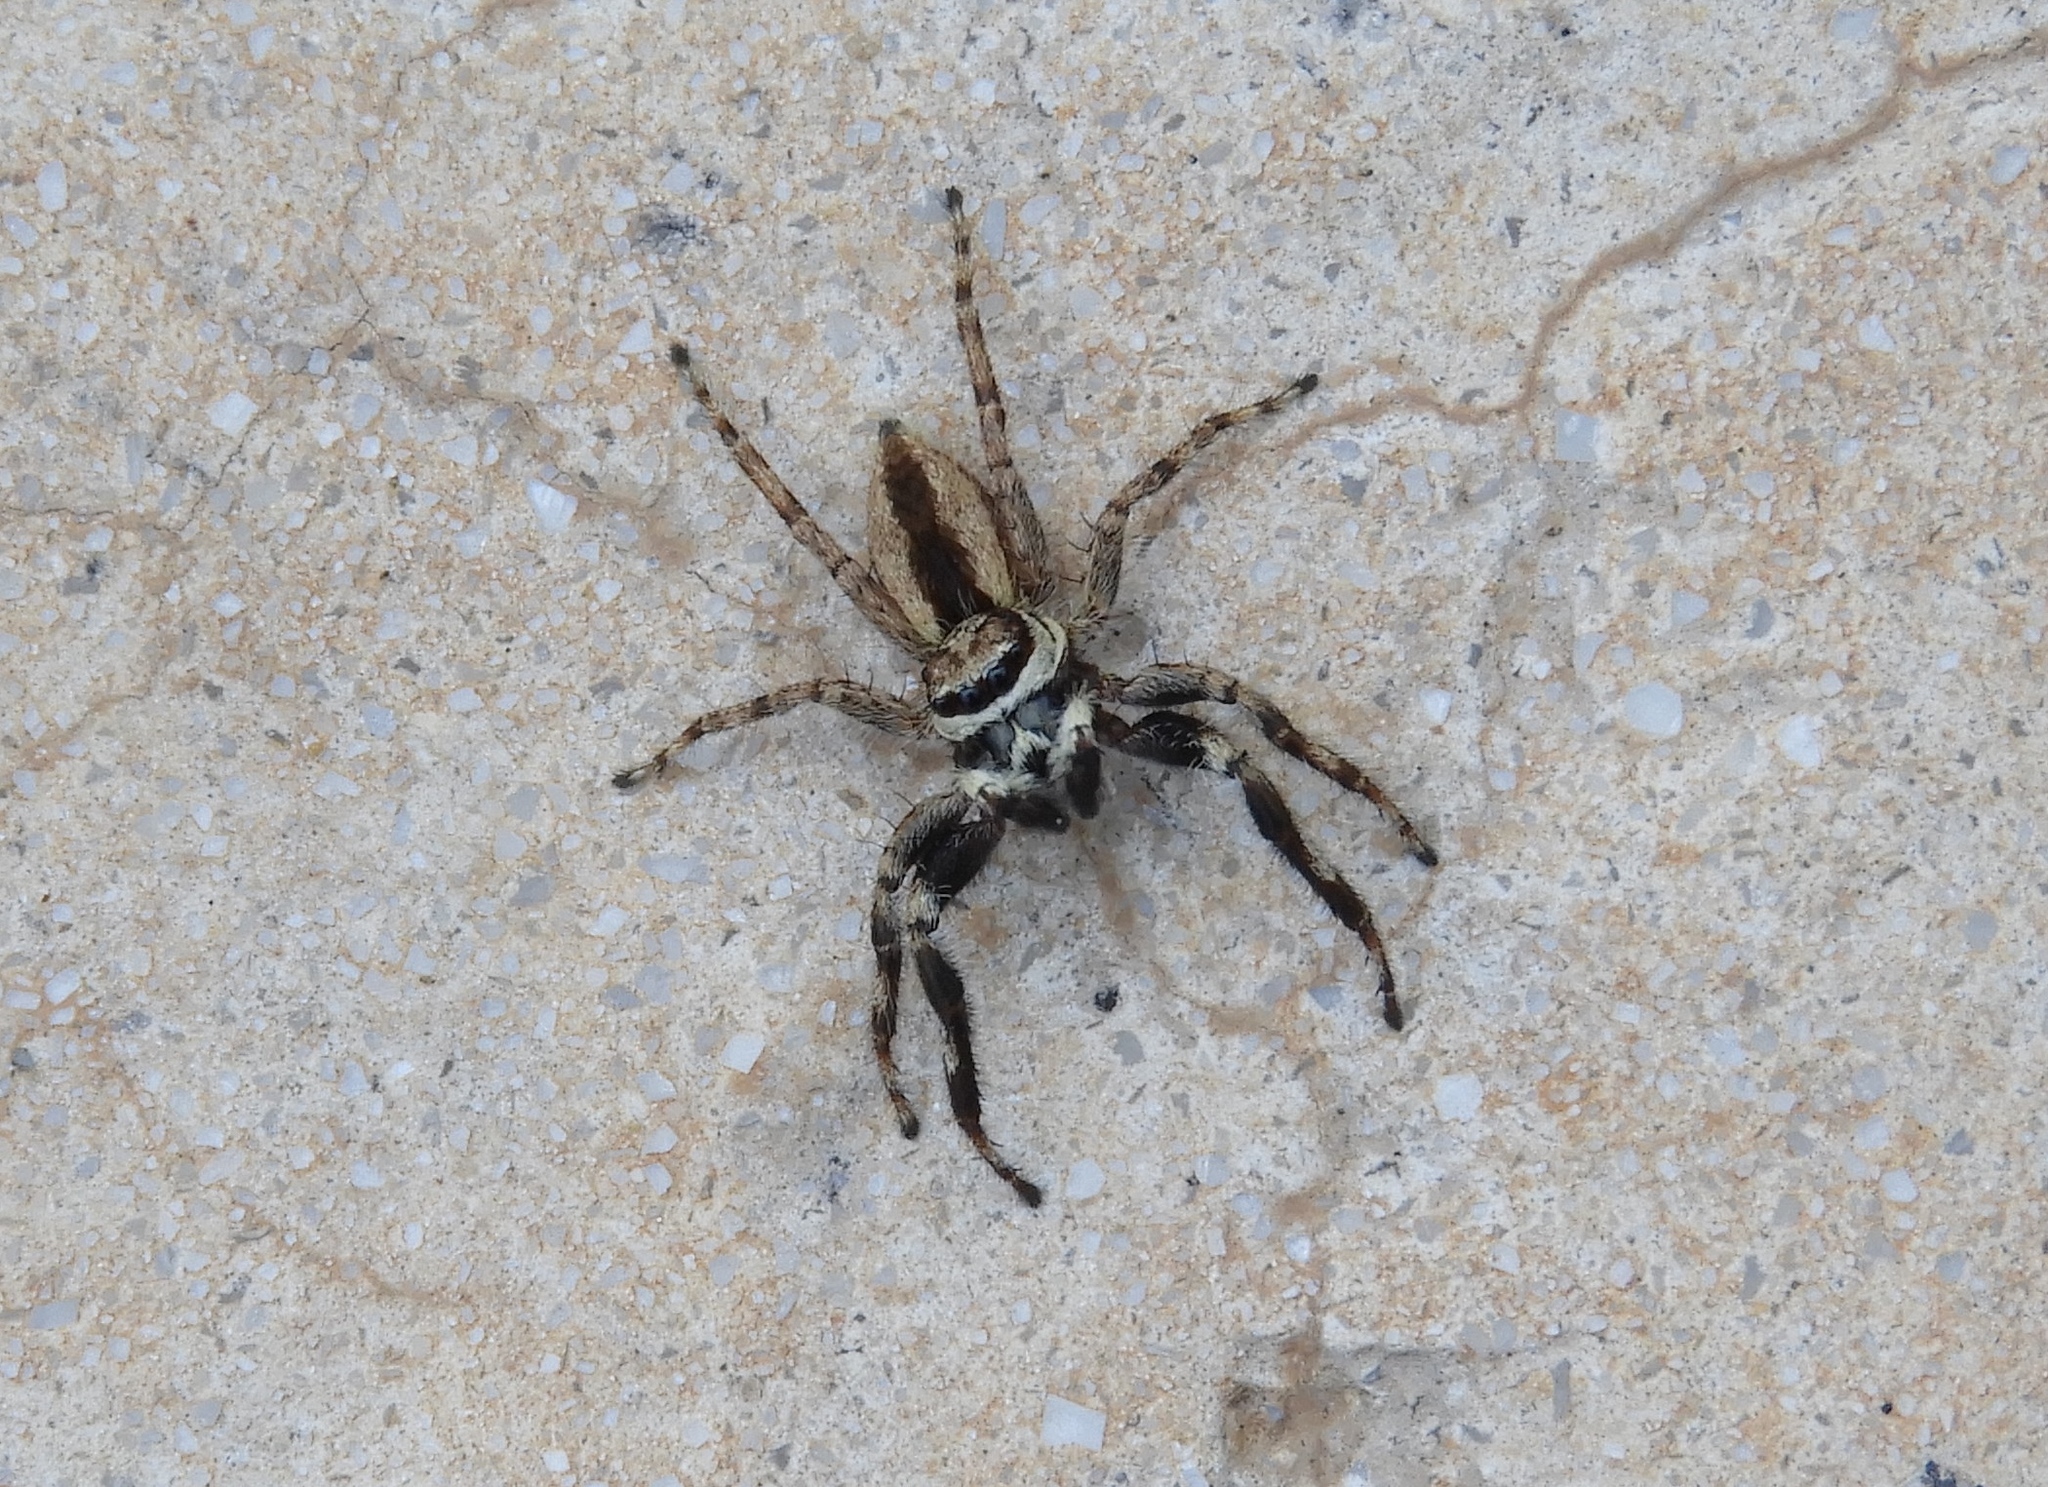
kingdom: Animalia
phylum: Arthropoda
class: Arachnida
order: Araneae
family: Salticidae
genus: Menemerus
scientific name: Menemerus bivittatus
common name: Gray wall jumper
